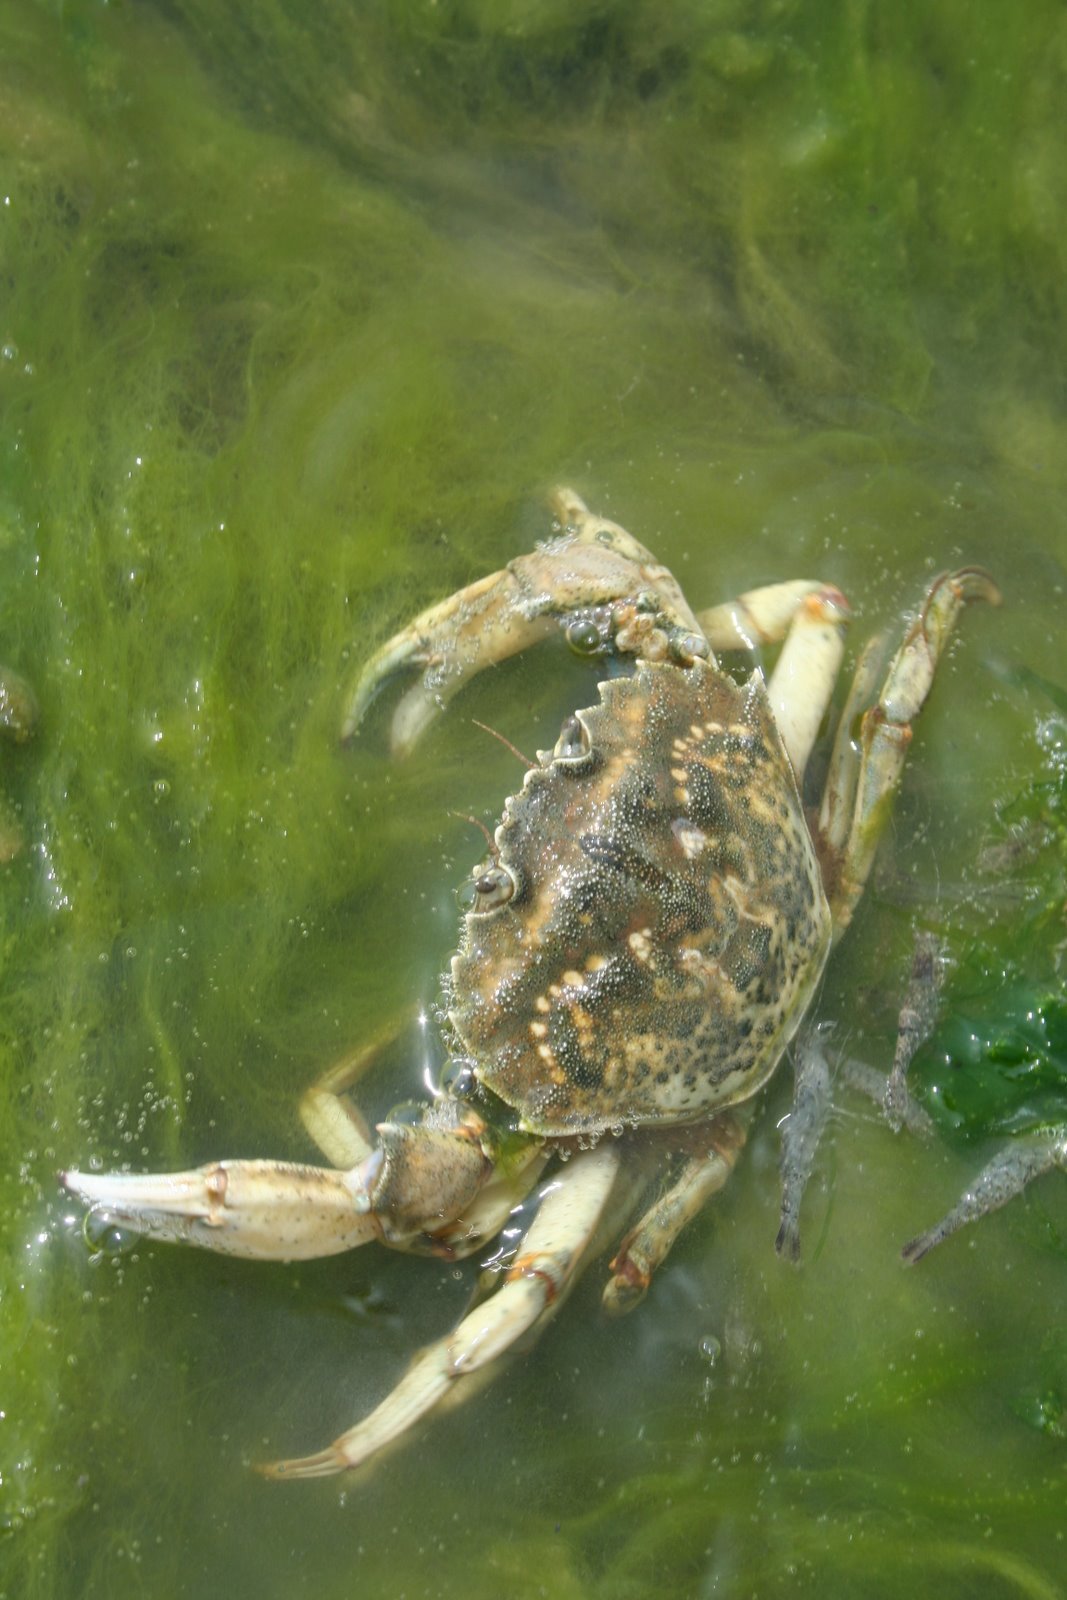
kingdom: Animalia
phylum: Arthropoda
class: Malacostraca
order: Decapoda
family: Carcinidae
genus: Carcinus
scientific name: Carcinus maenas
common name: European green crab
